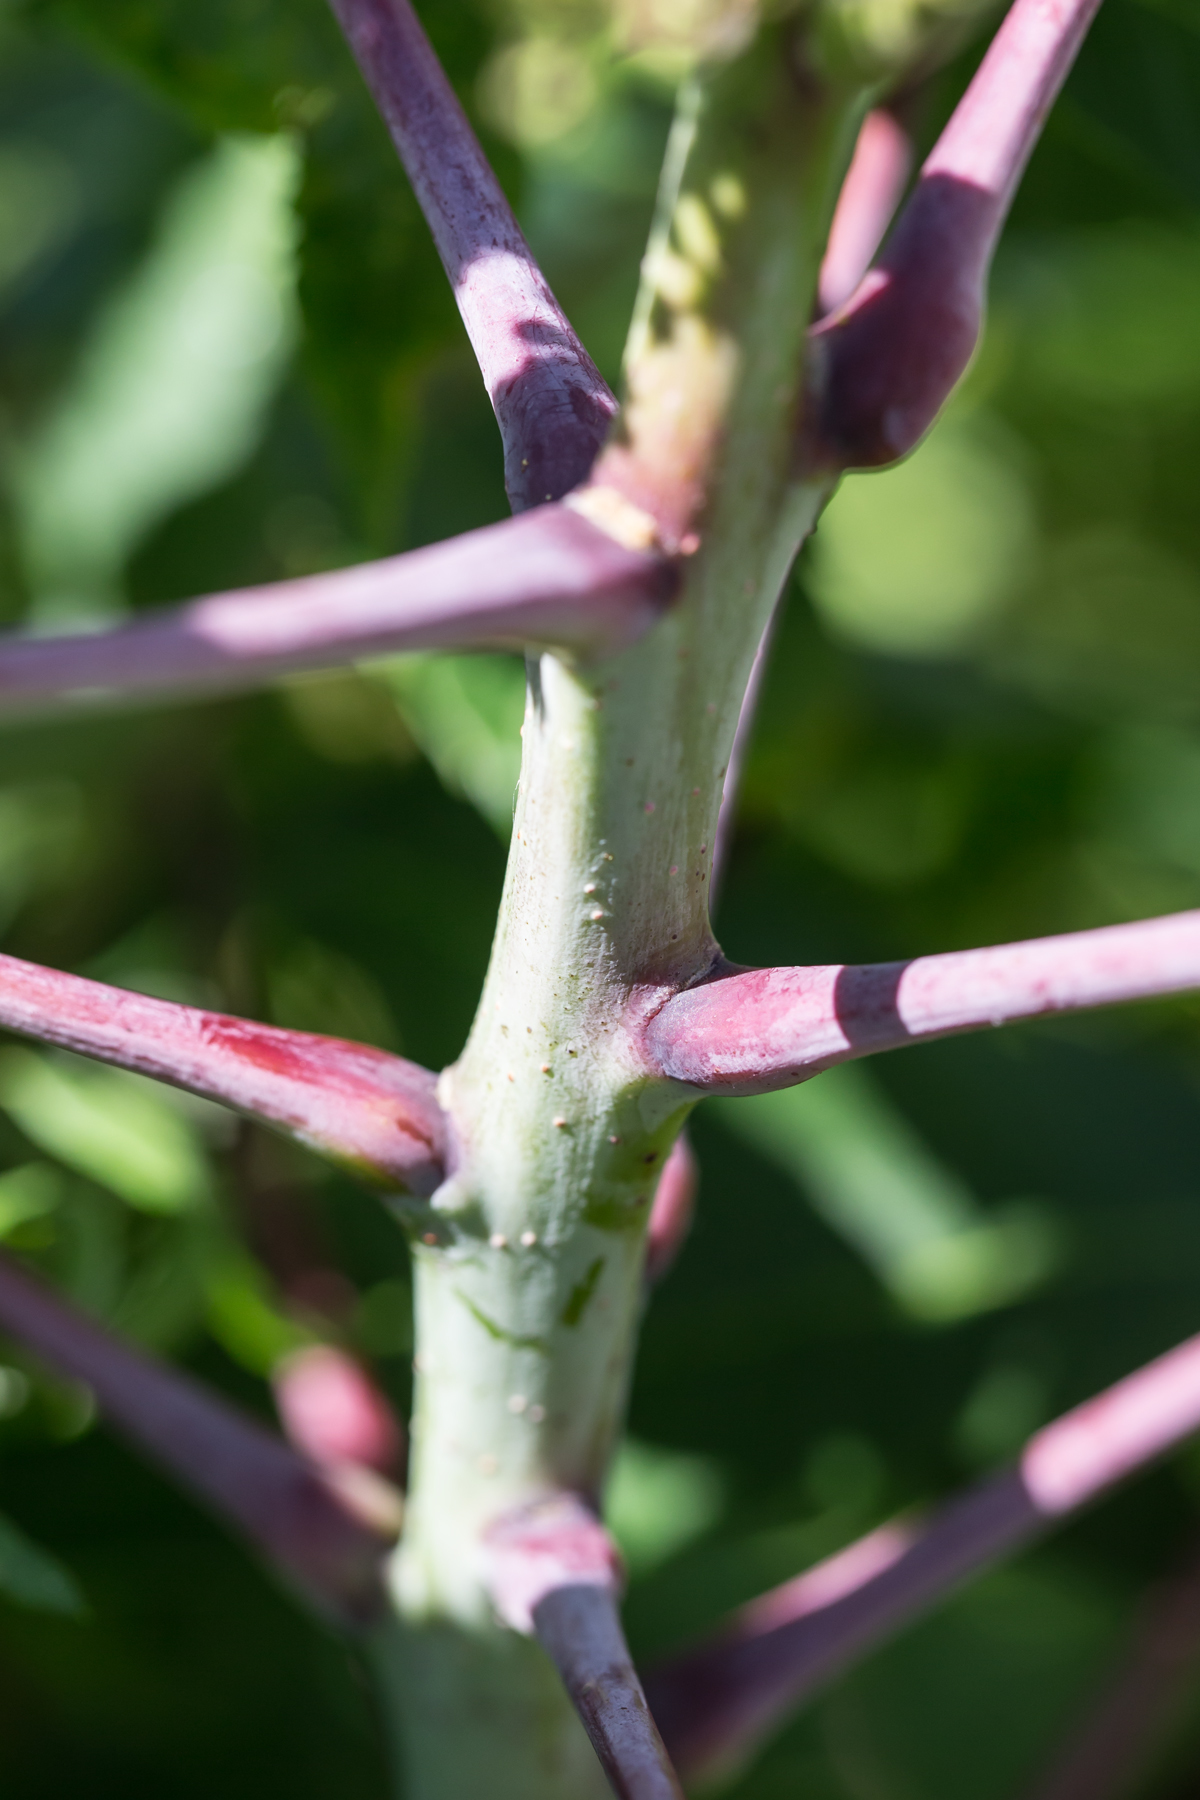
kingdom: Plantae
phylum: Tracheophyta
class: Magnoliopsida
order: Sapindales
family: Anacardiaceae
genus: Rhus
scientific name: Rhus glabra
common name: Scarlet sumac
